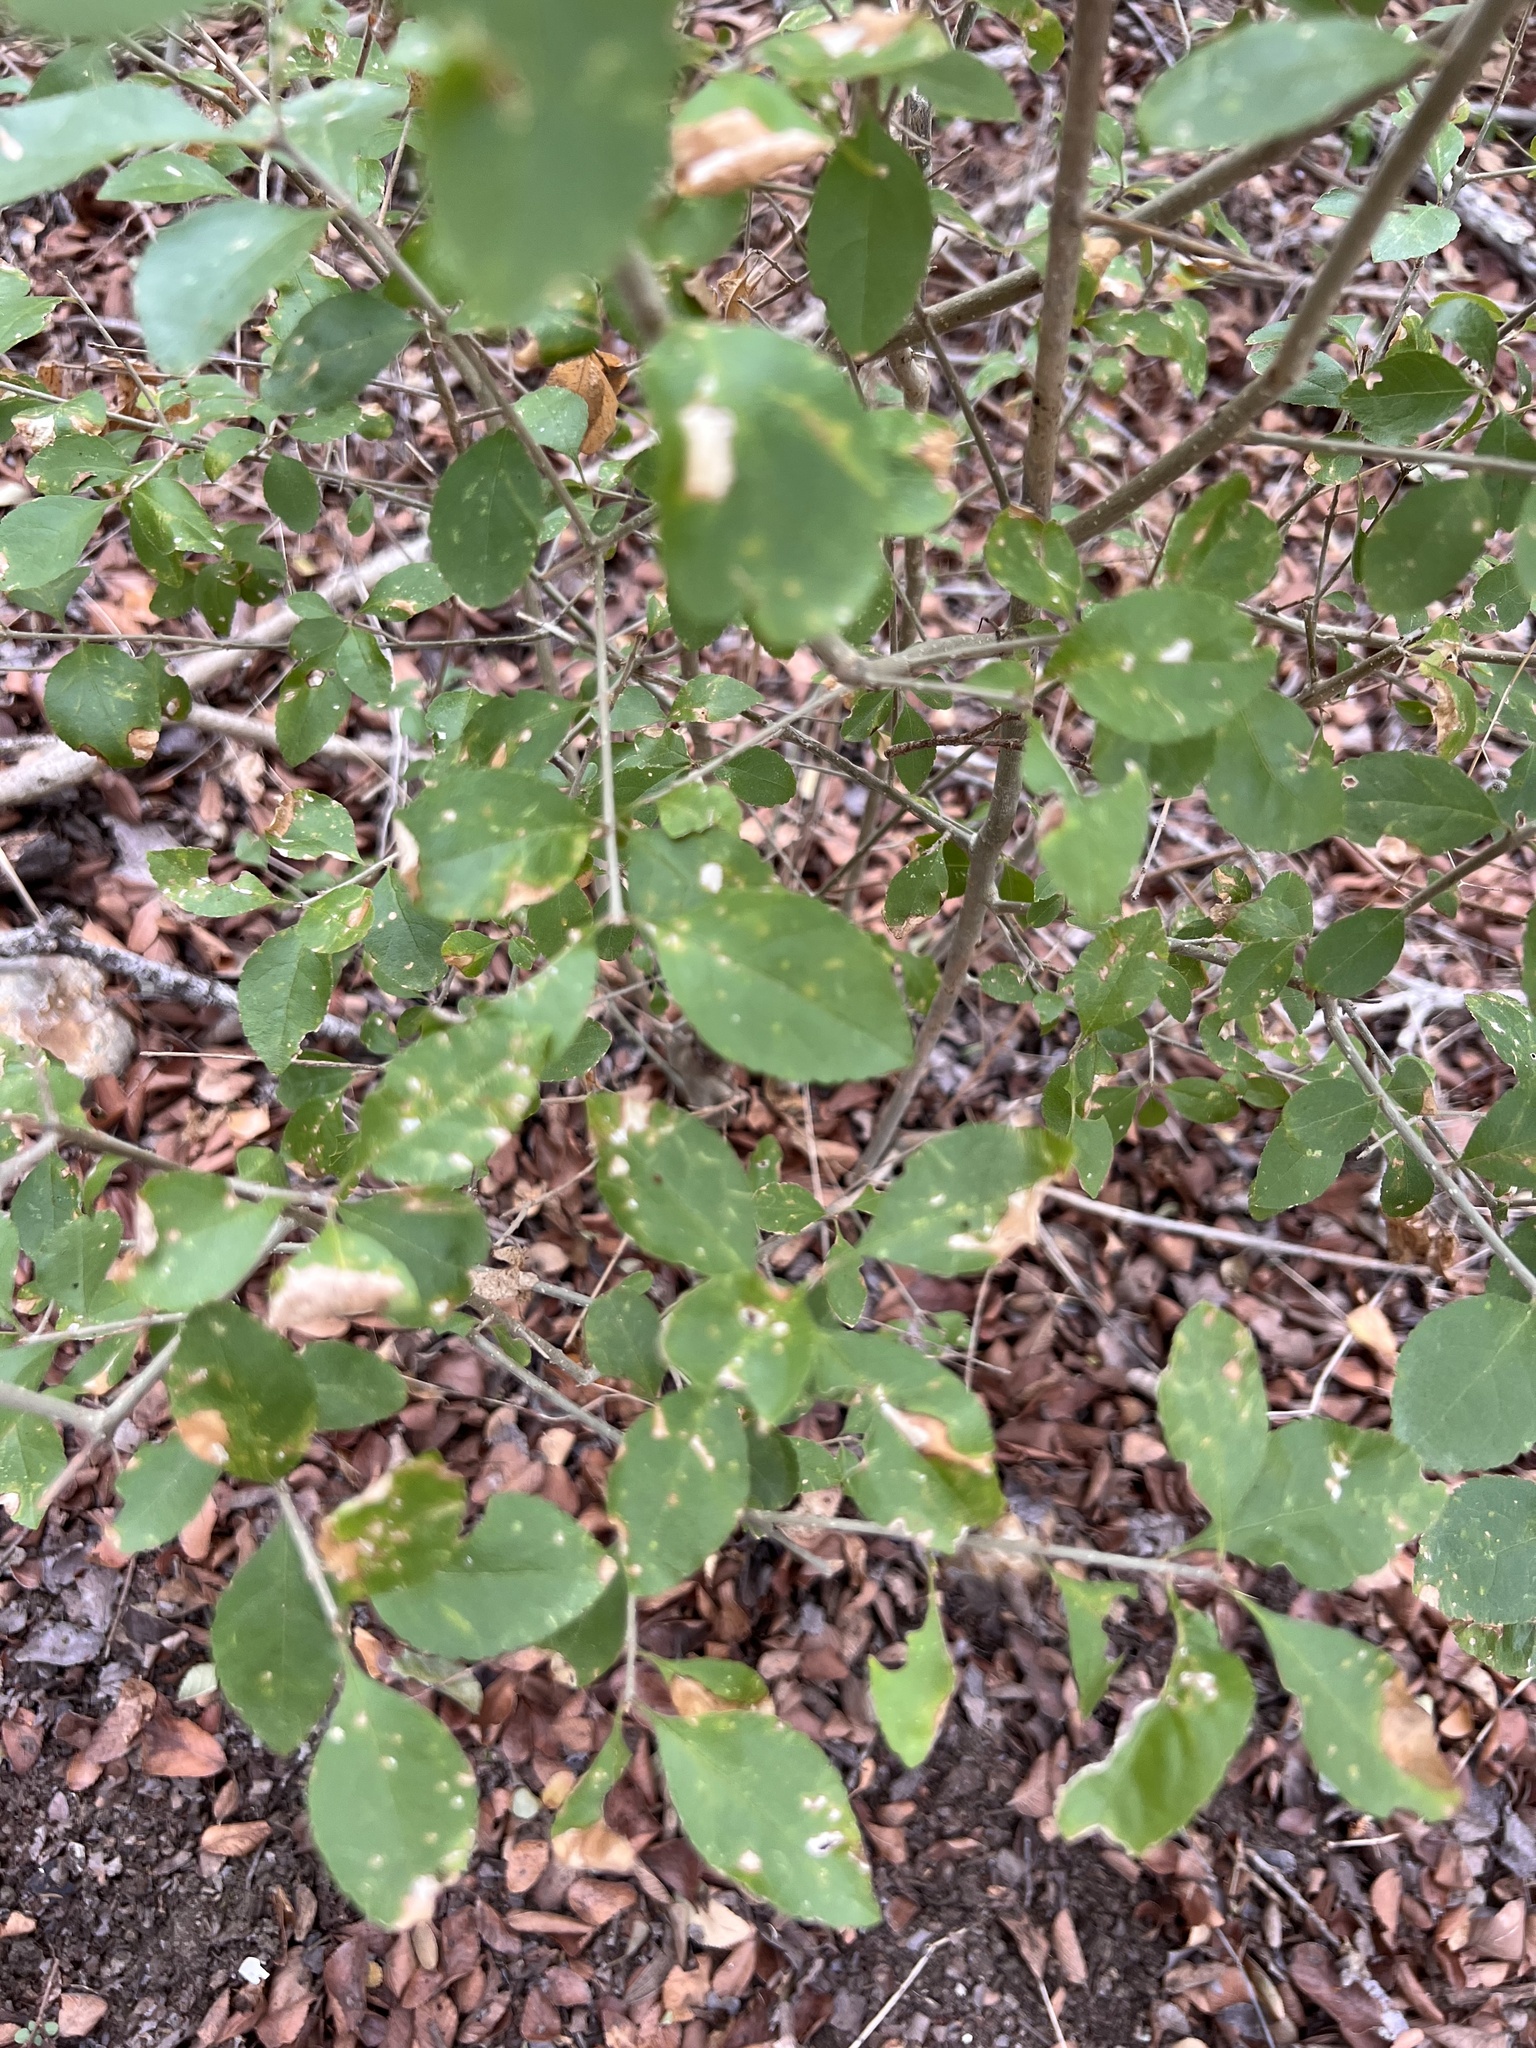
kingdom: Plantae
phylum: Tracheophyta
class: Magnoliopsida
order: Lamiales
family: Oleaceae
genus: Forestiera
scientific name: Forestiera pubescens
